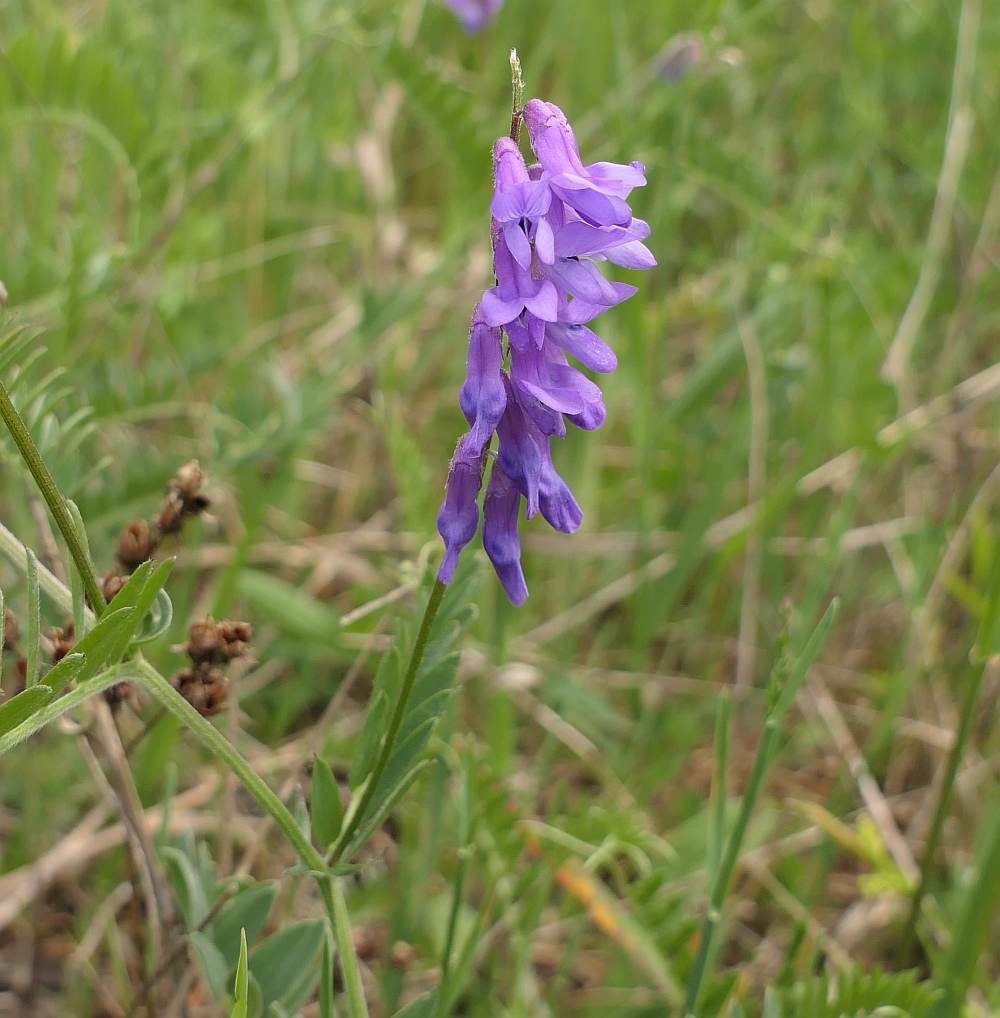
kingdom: Plantae
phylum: Tracheophyta
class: Magnoliopsida
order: Fabales
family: Fabaceae
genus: Vicia
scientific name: Vicia cracca
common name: Bird vetch
